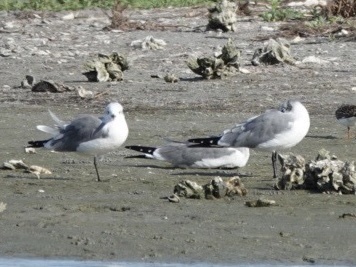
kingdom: Animalia
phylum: Chordata
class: Aves
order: Charadriiformes
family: Laridae
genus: Leucophaeus
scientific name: Leucophaeus atricilla
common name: Laughing gull
